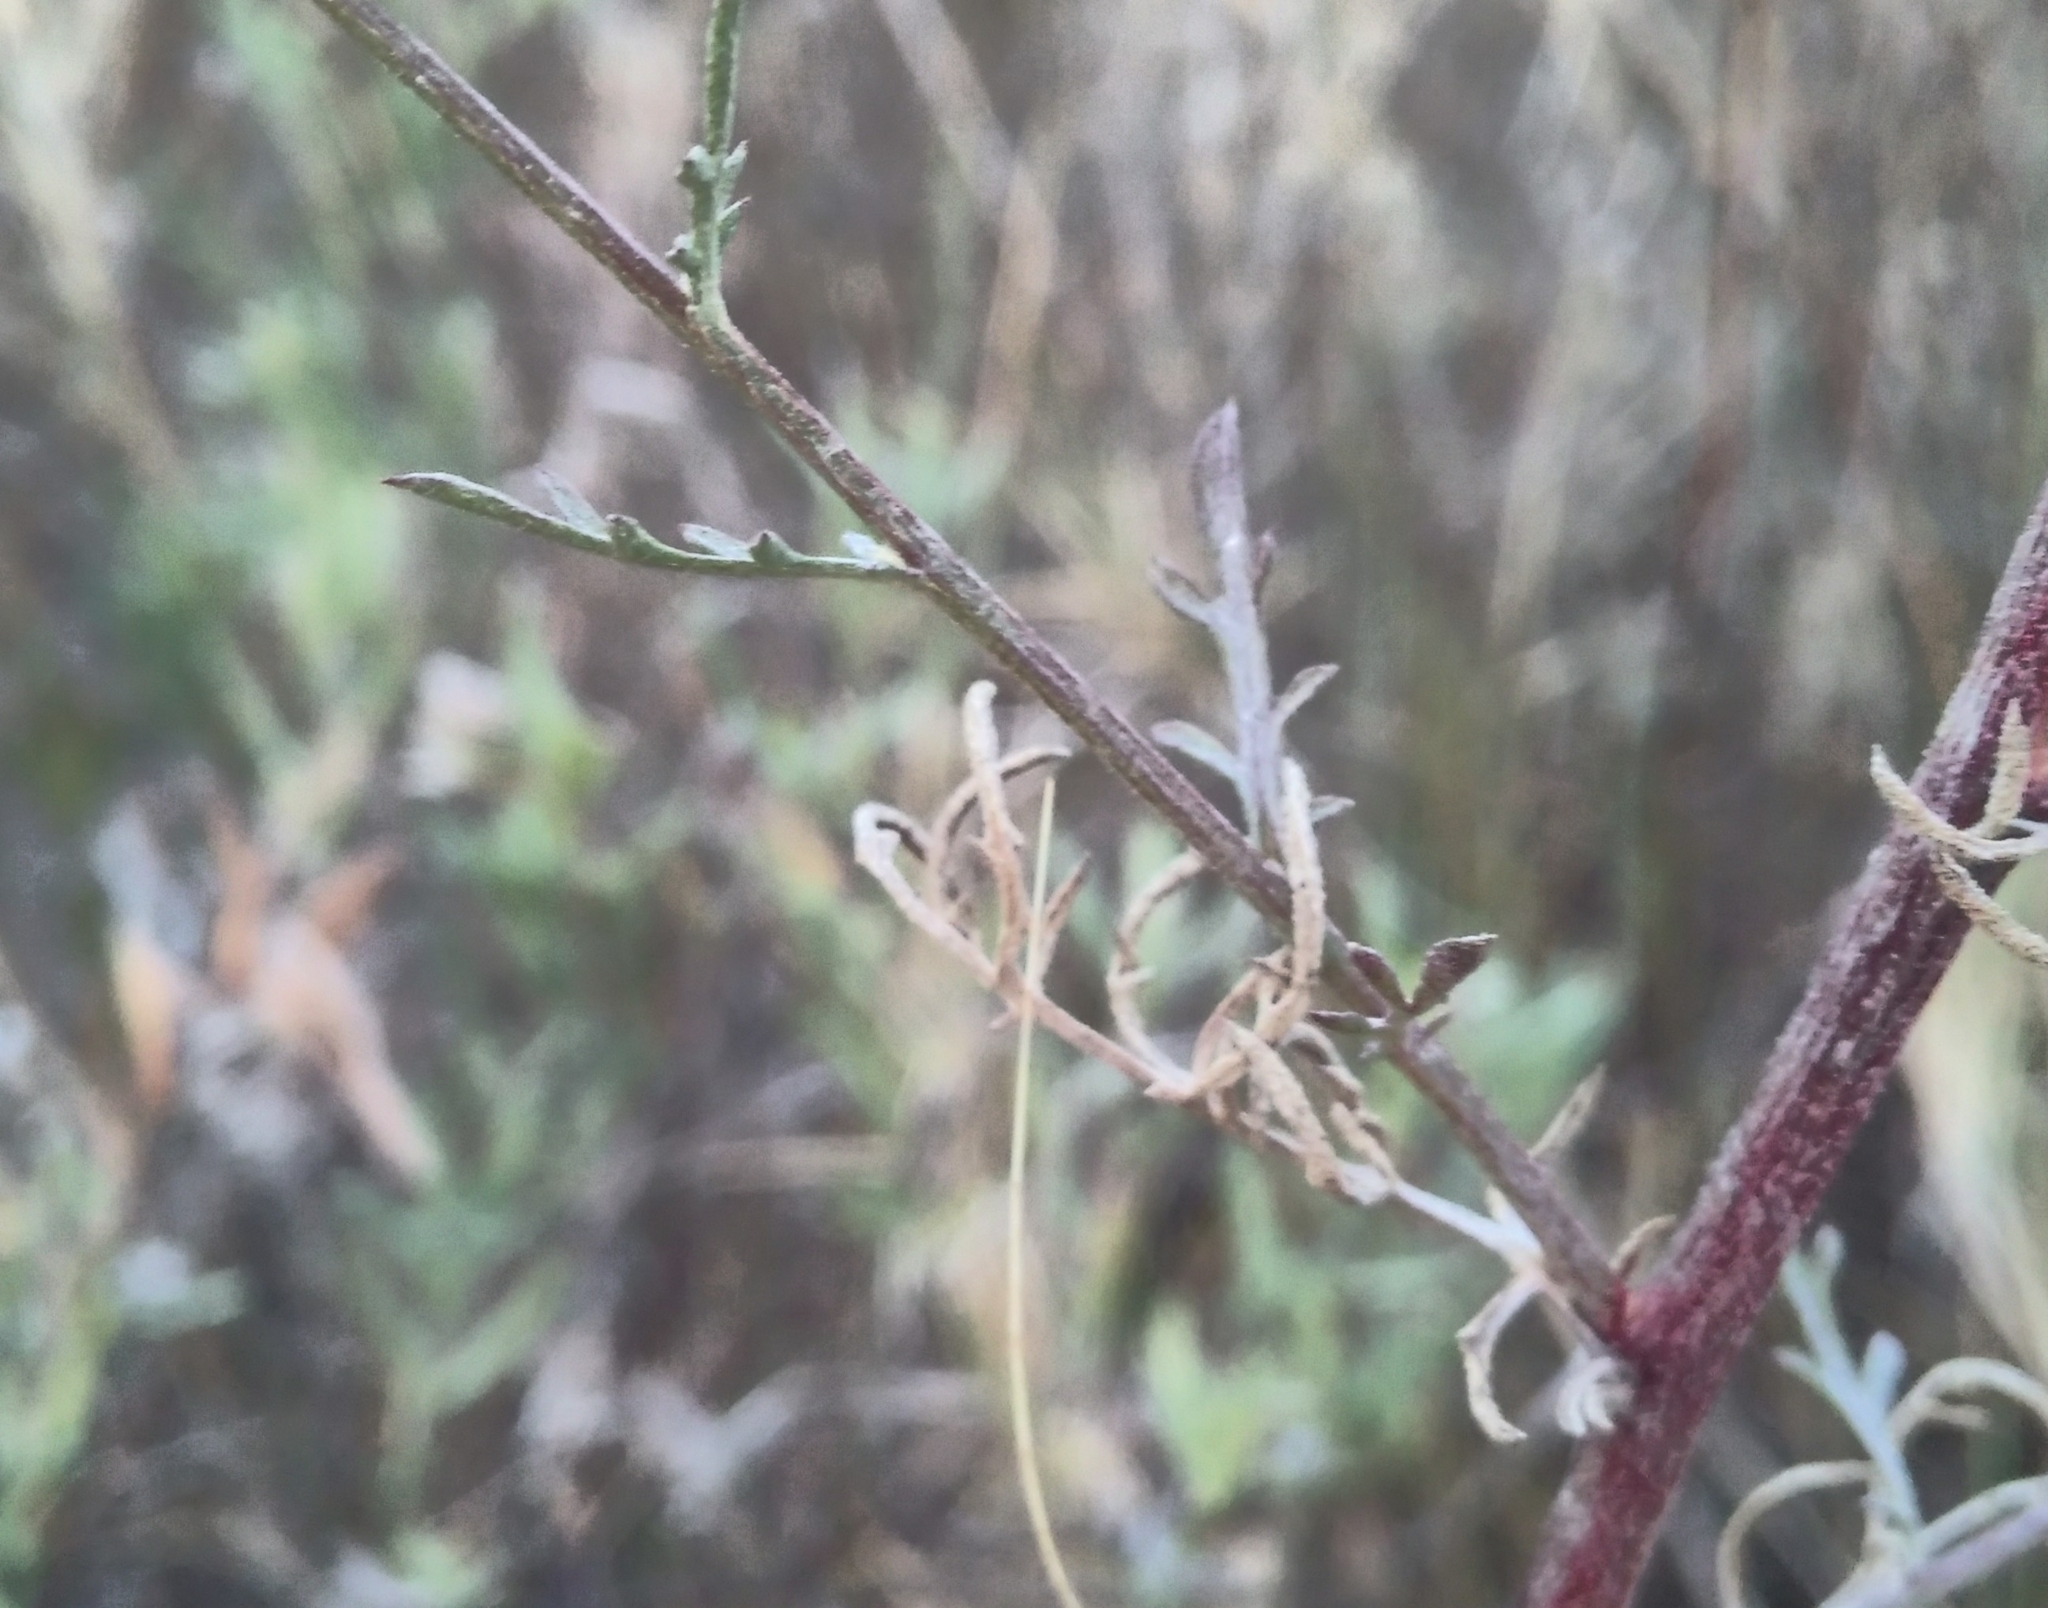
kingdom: Plantae
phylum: Tracheophyta
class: Magnoliopsida
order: Asterales
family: Asteraceae
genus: Centaurea
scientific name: Centaurea paniculata
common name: Jersey knapweed
